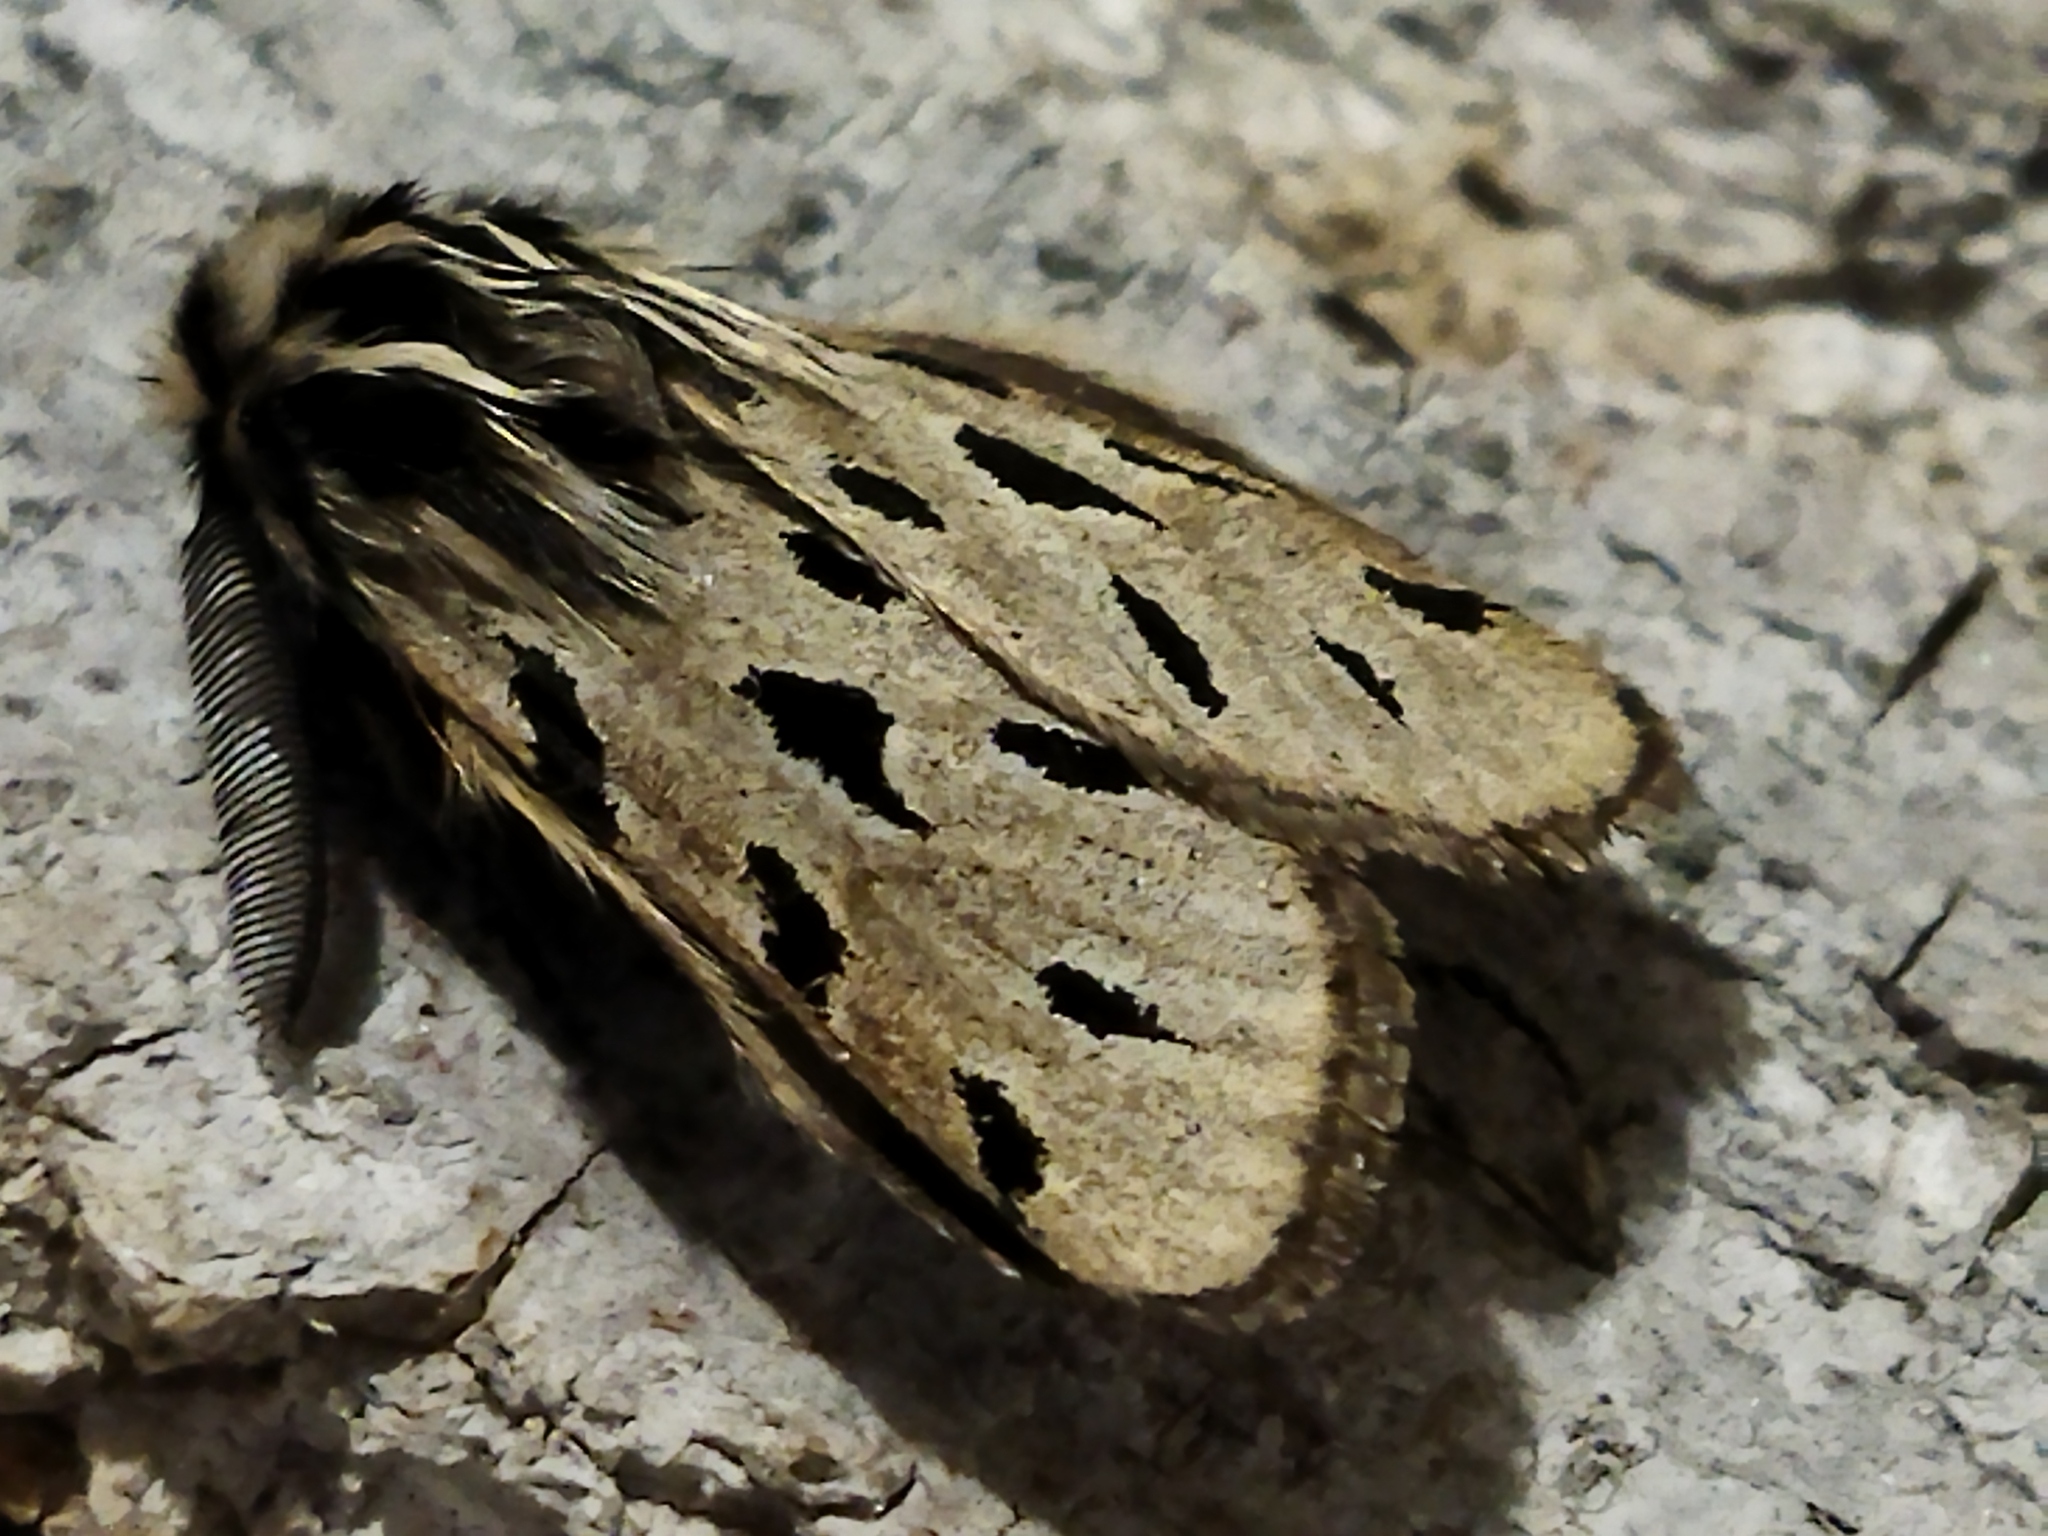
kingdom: Animalia
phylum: Arthropoda
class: Insecta
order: Lepidoptera
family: Erebidae
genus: Ocnogyna
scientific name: Ocnogyna parasita
